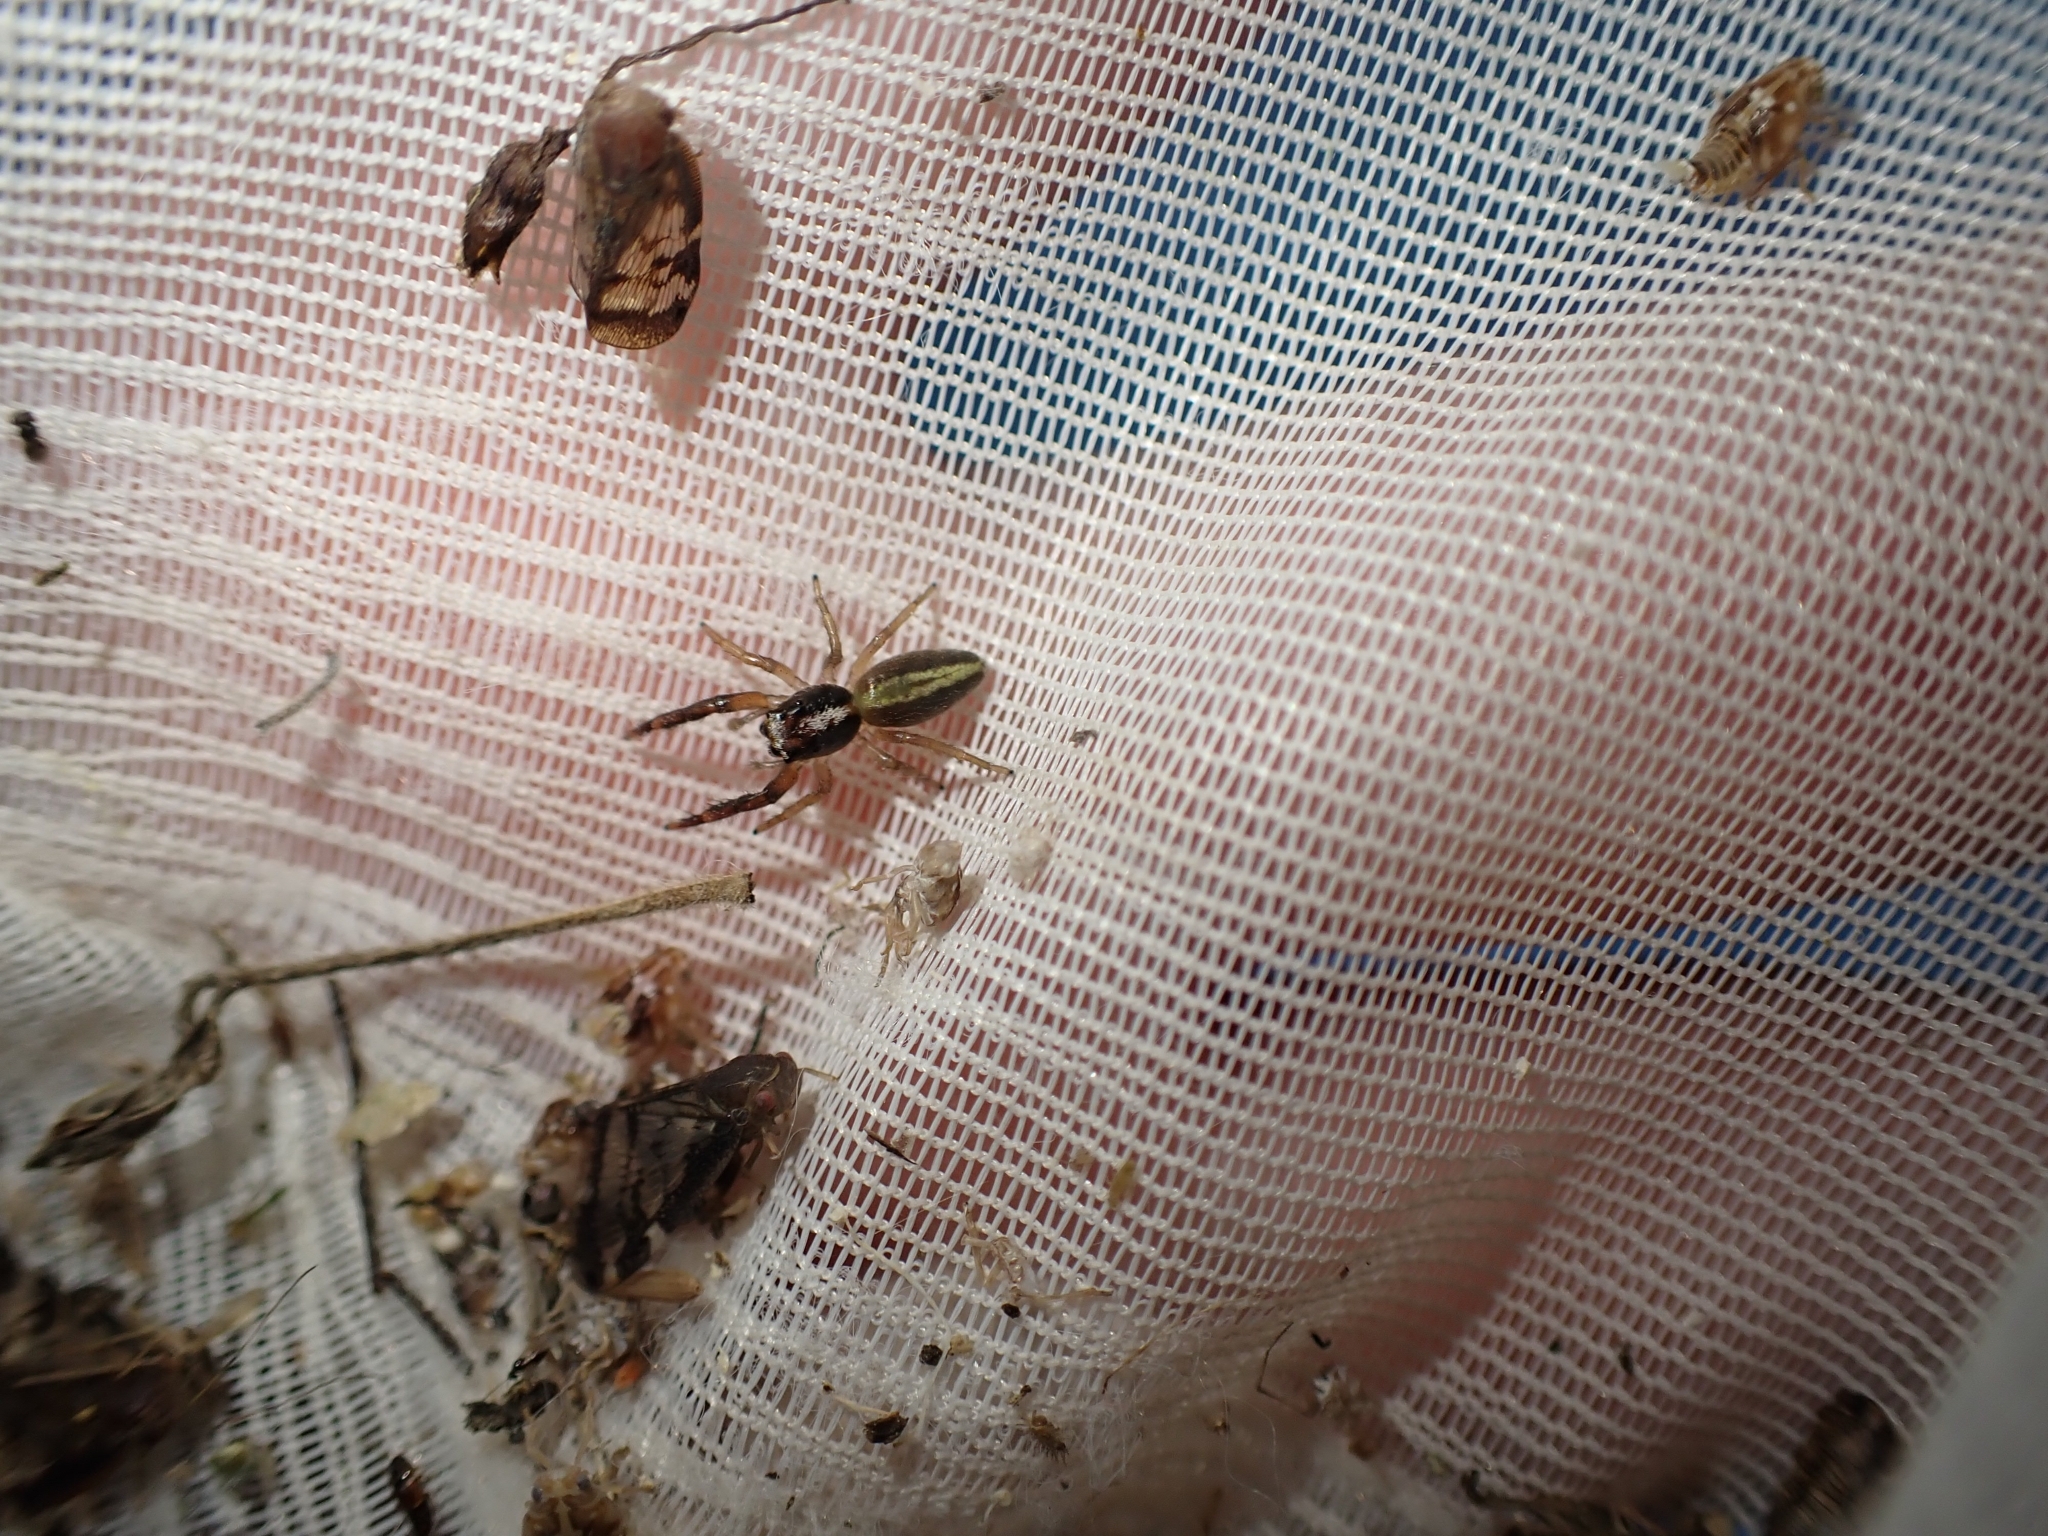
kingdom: Animalia
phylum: Arthropoda
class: Arachnida
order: Araneae
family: Salticidae
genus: Trite
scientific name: Trite planiceps
